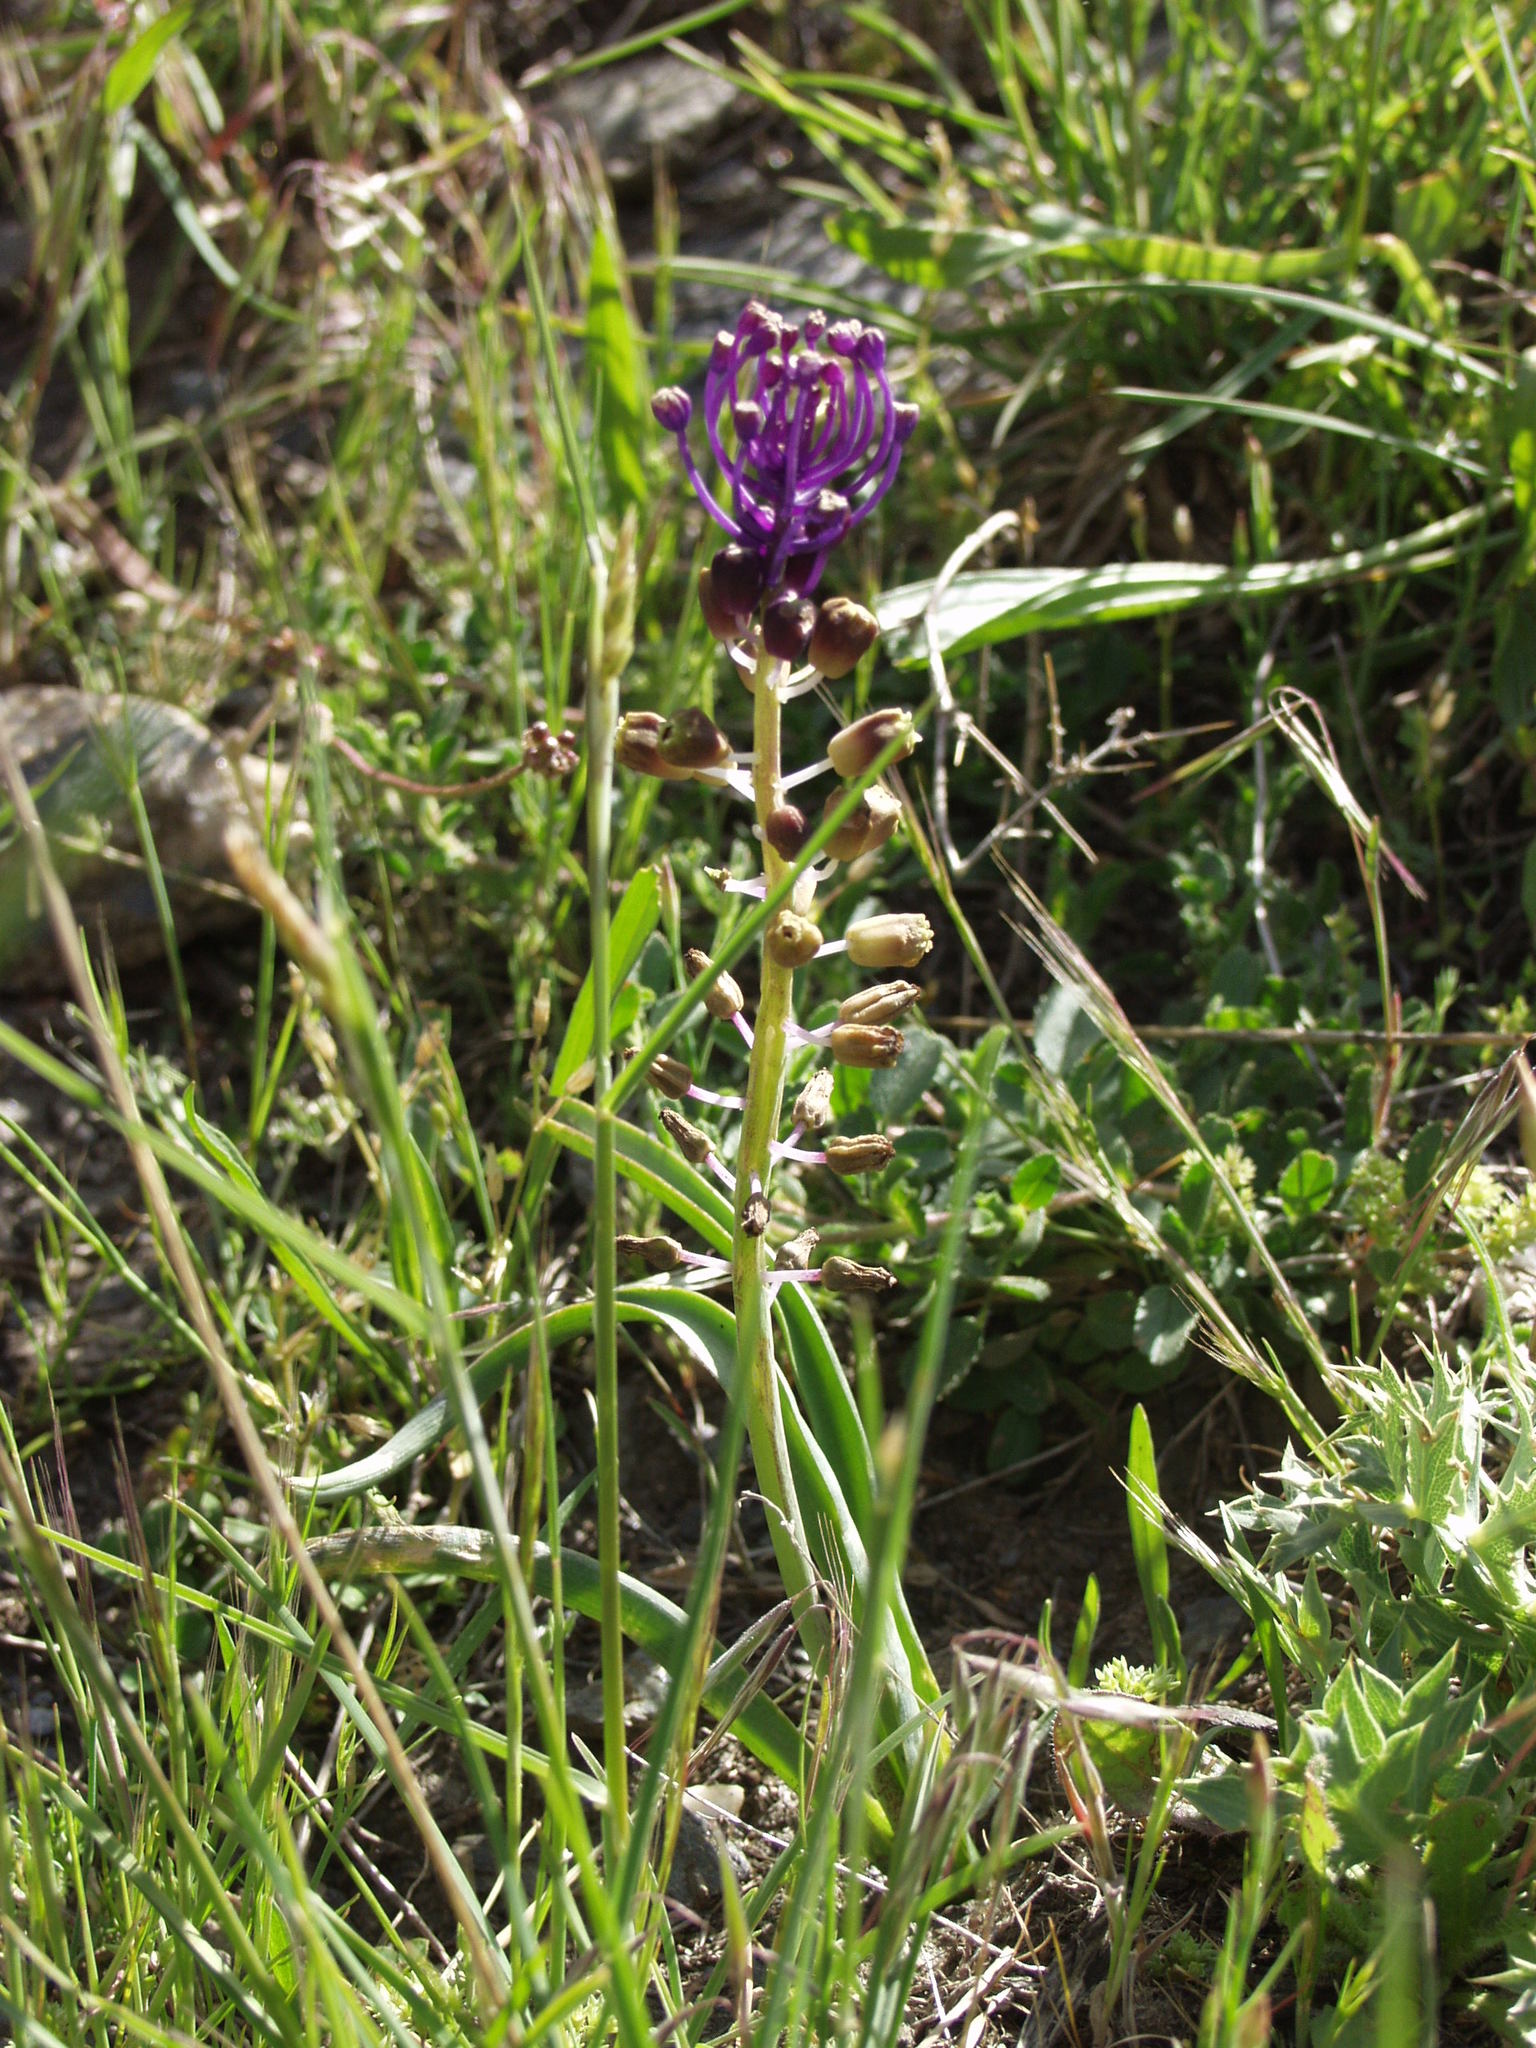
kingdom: Plantae
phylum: Tracheophyta
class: Liliopsida
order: Asparagales
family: Asparagaceae
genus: Muscari
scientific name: Muscari comosum
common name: Tassel hyacinth
